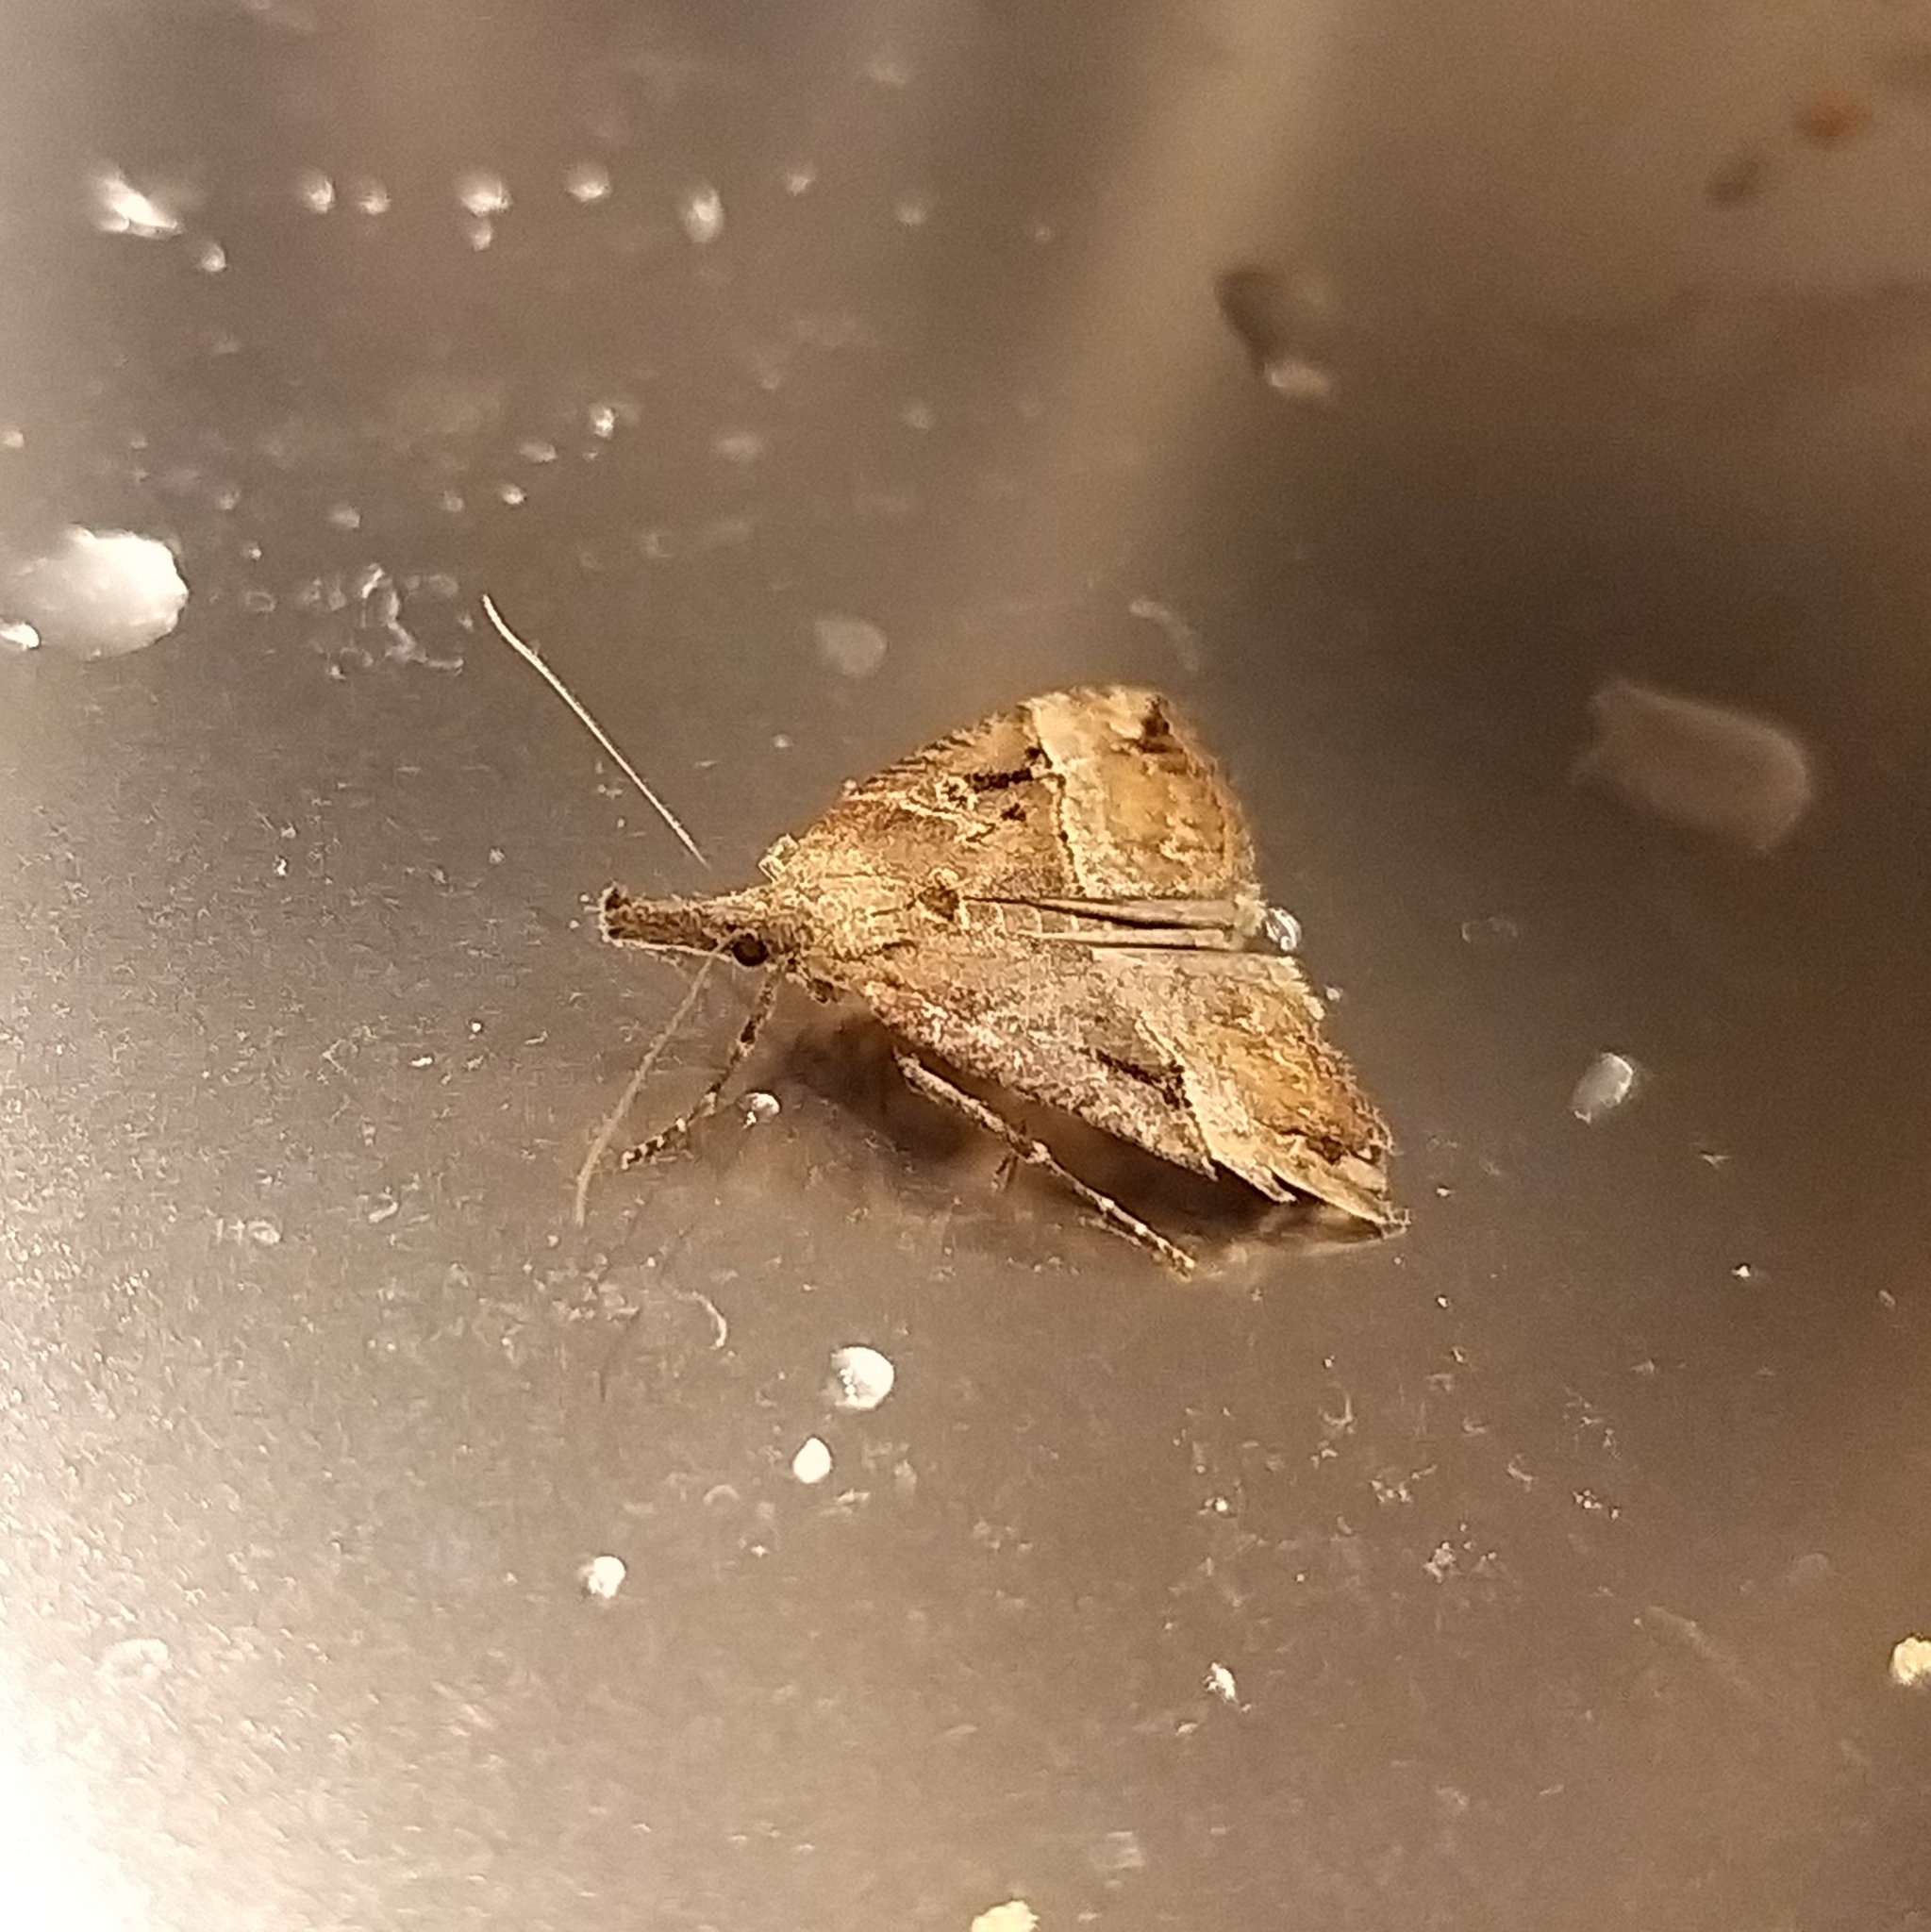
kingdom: Animalia
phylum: Arthropoda
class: Insecta
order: Lepidoptera
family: Erebidae
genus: Hypena
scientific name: Hypena rostralis
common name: Buttoned snout
